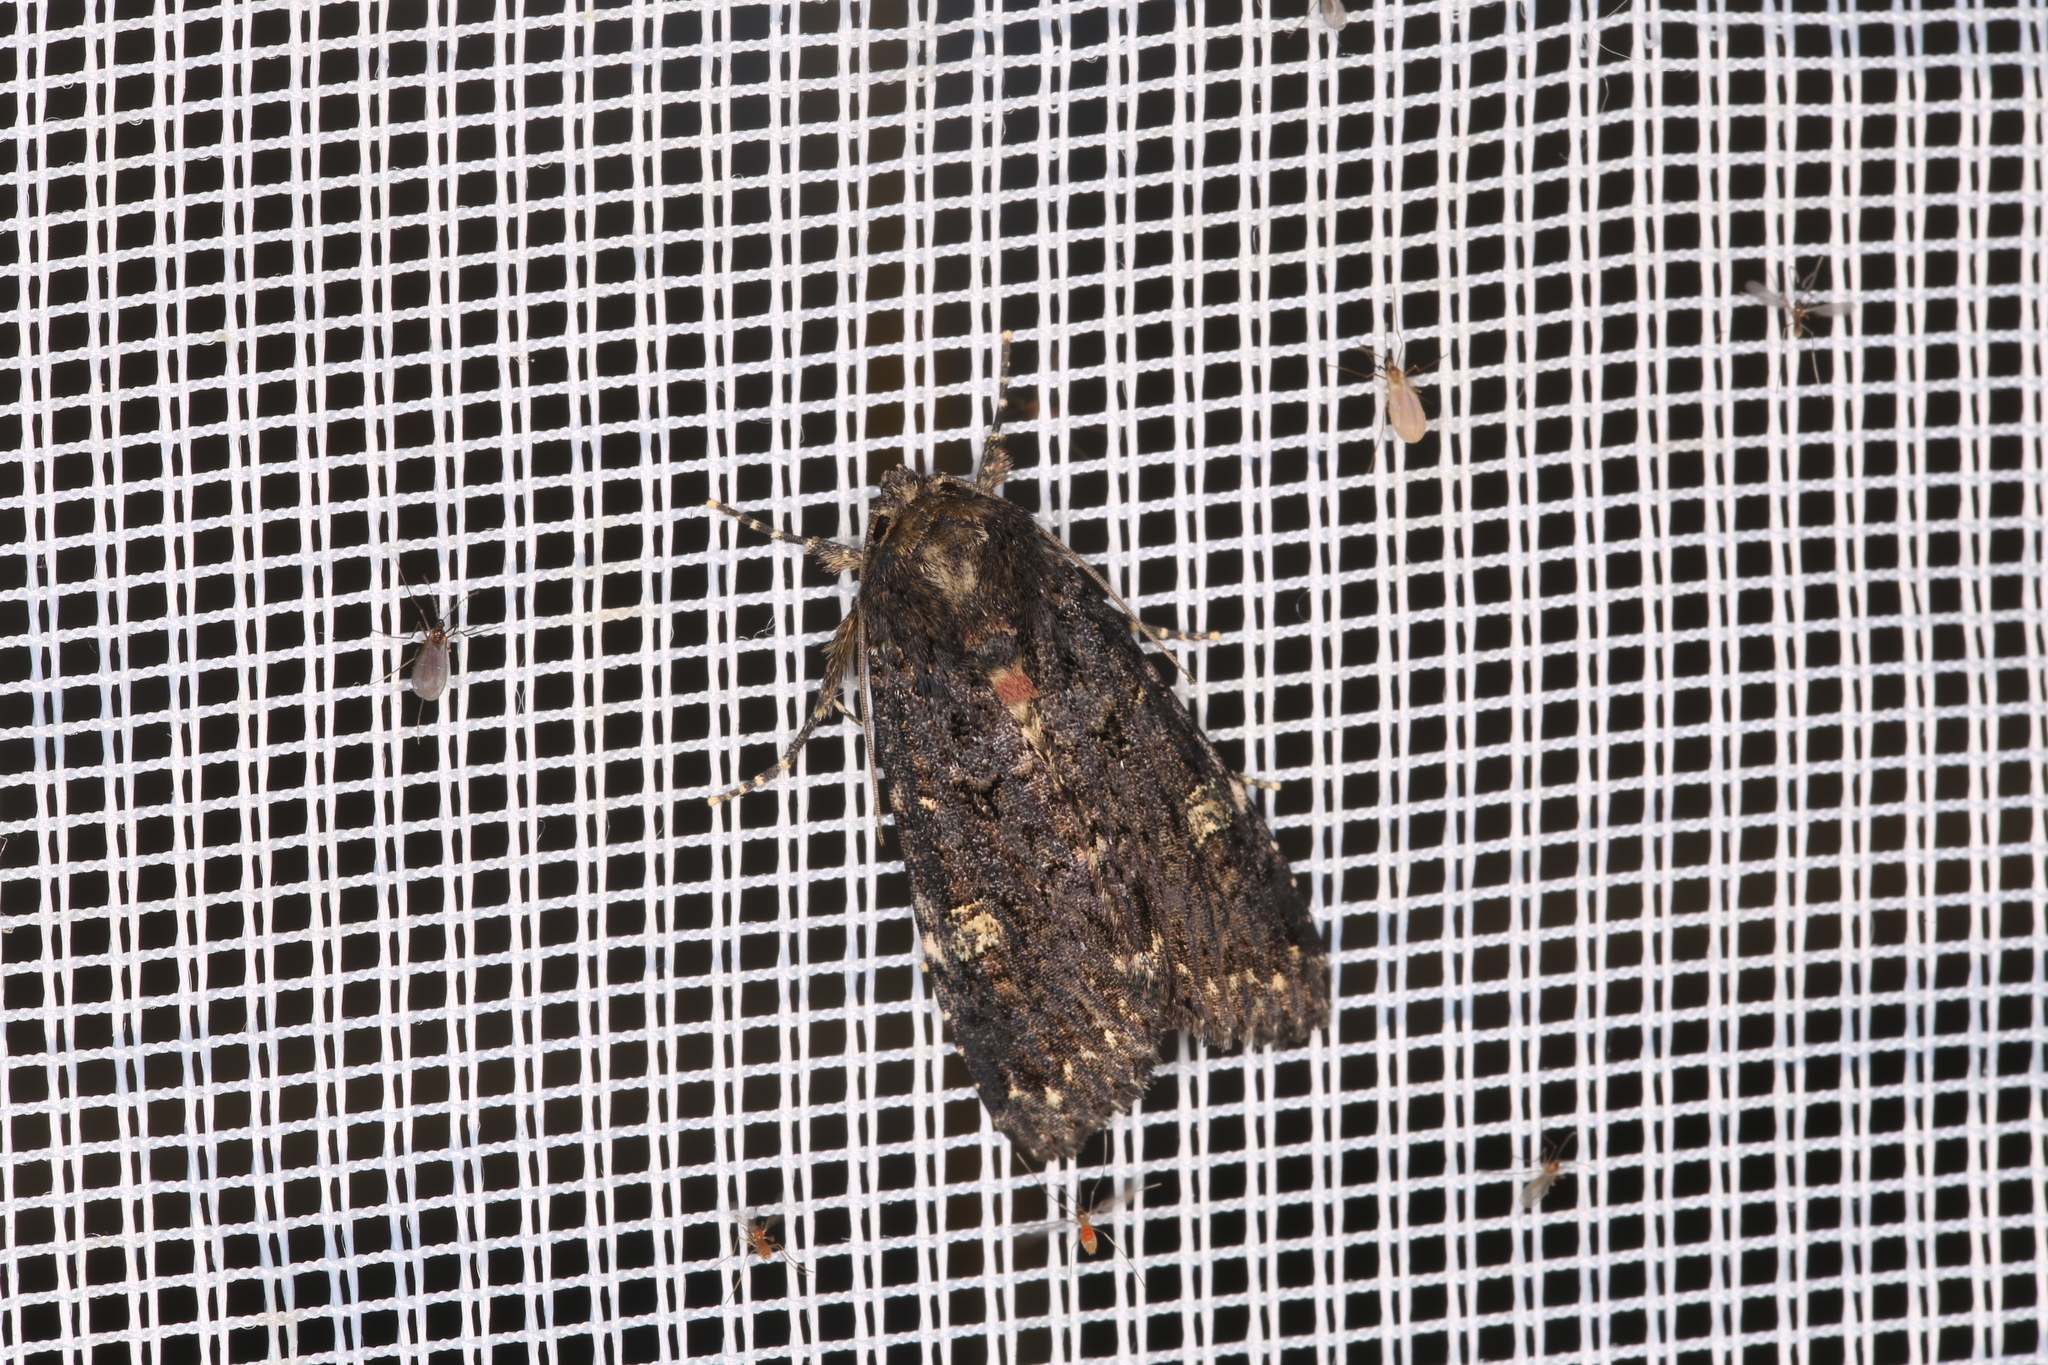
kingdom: Animalia
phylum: Arthropoda
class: Insecta
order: Lepidoptera
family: Noctuidae
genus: Melanchra
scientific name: Melanchra persicariae
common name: Dot moth
